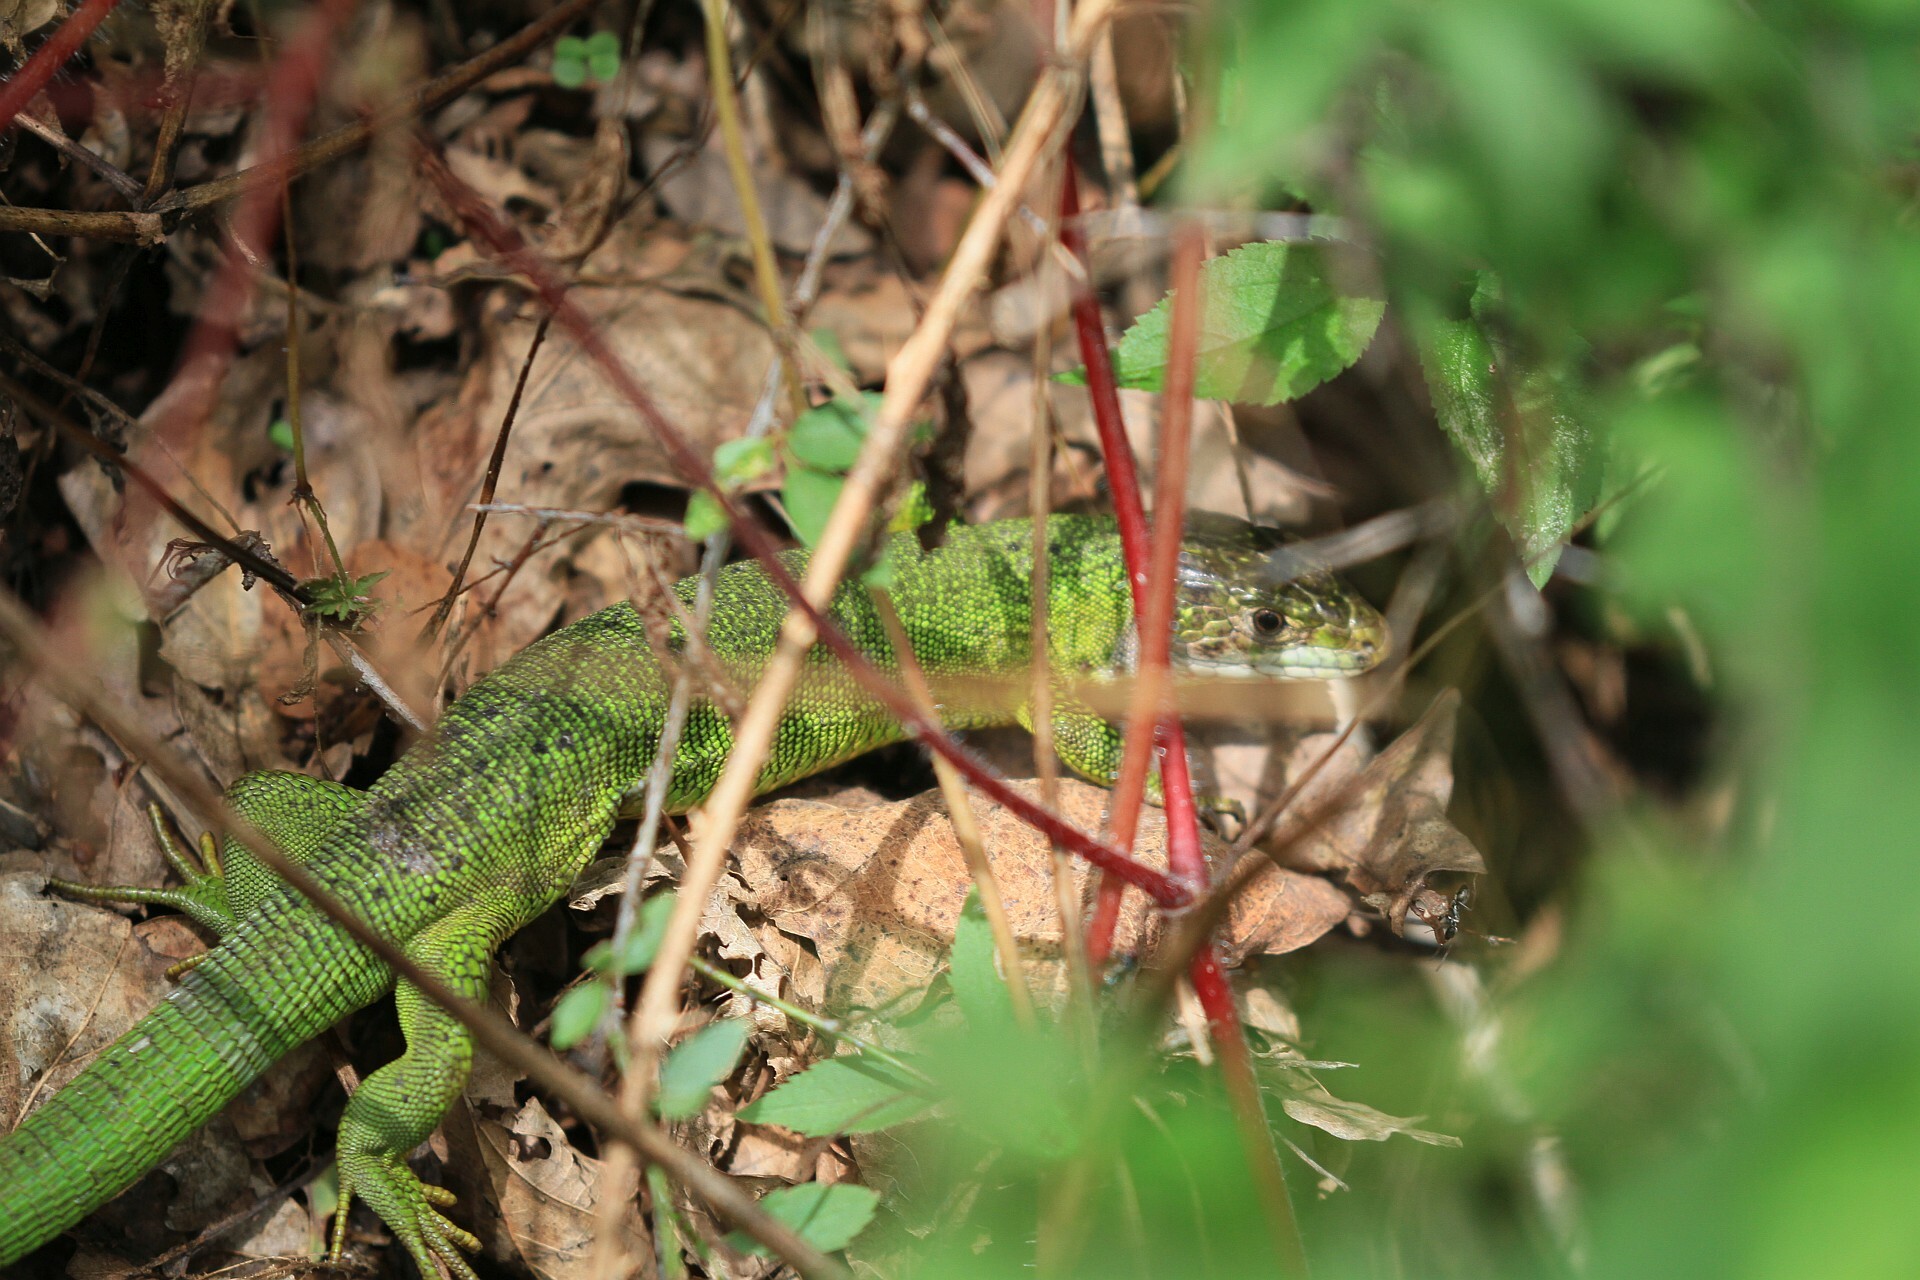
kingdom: Animalia
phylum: Chordata
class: Squamata
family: Lacertidae
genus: Lacerta
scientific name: Lacerta bilineata
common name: Western green lizard
